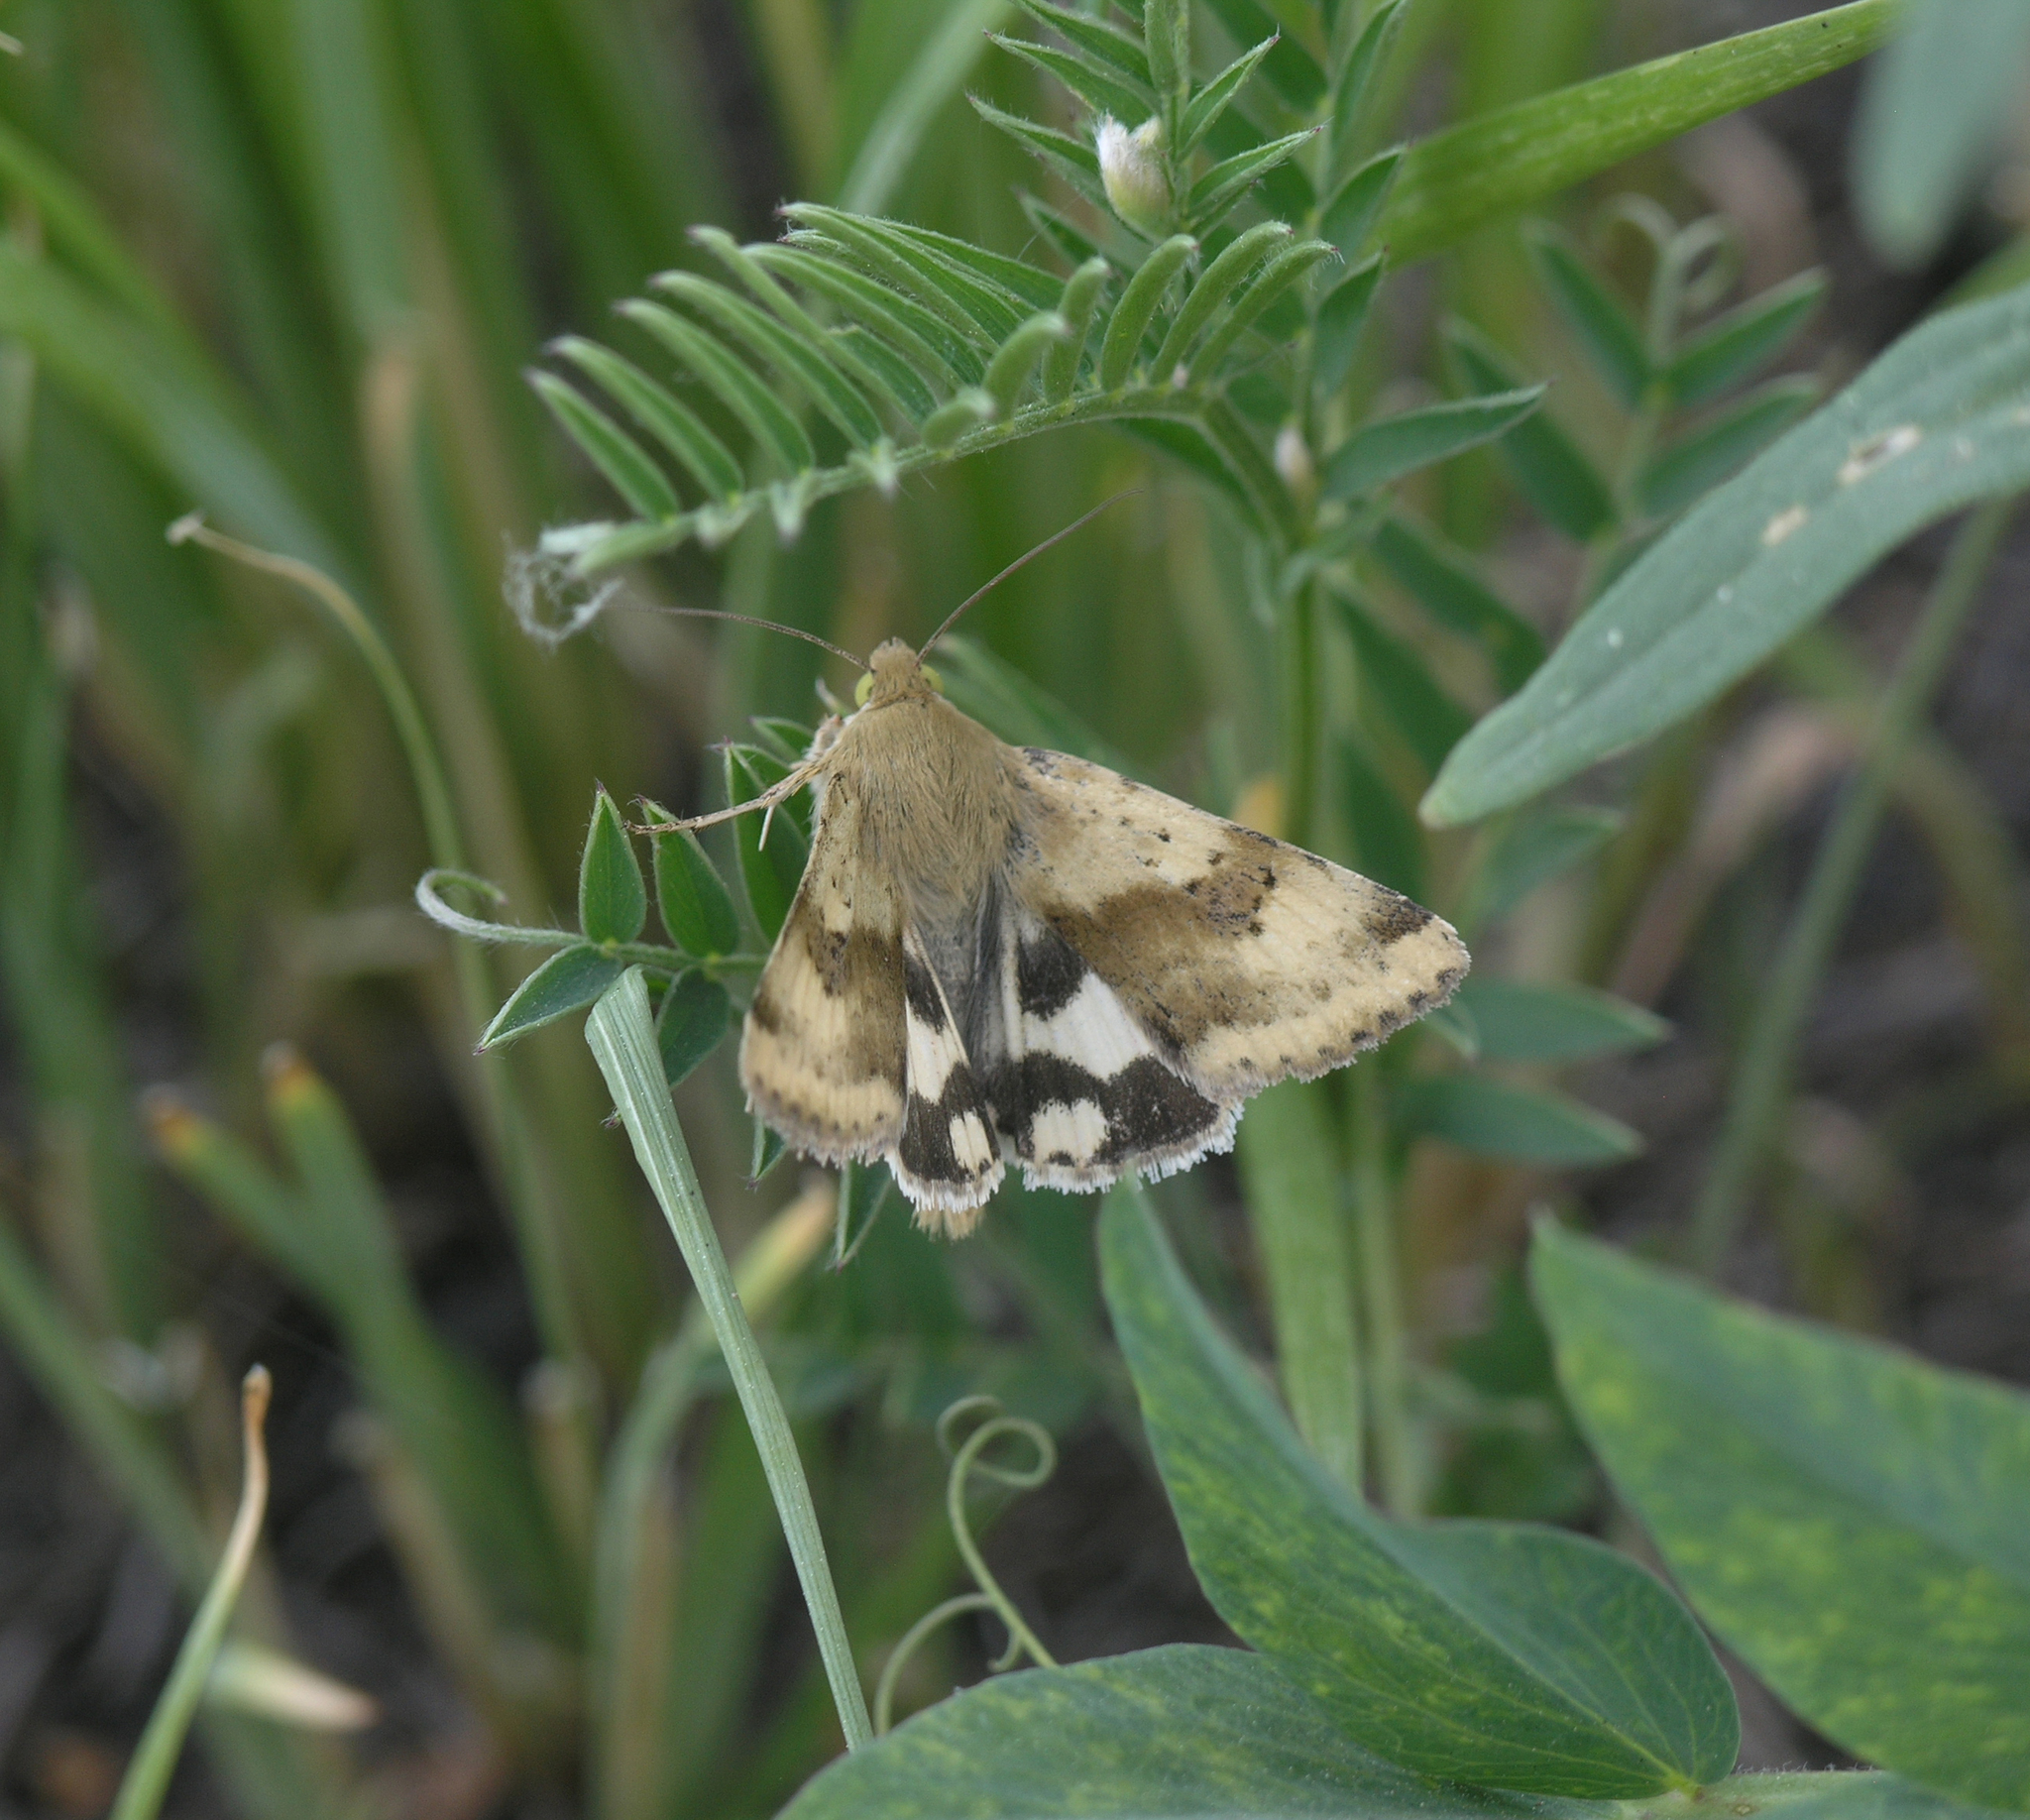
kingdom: Animalia
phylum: Arthropoda
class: Insecta
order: Lepidoptera
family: Noctuidae
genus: Heliothis
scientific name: Heliothis adaucta
